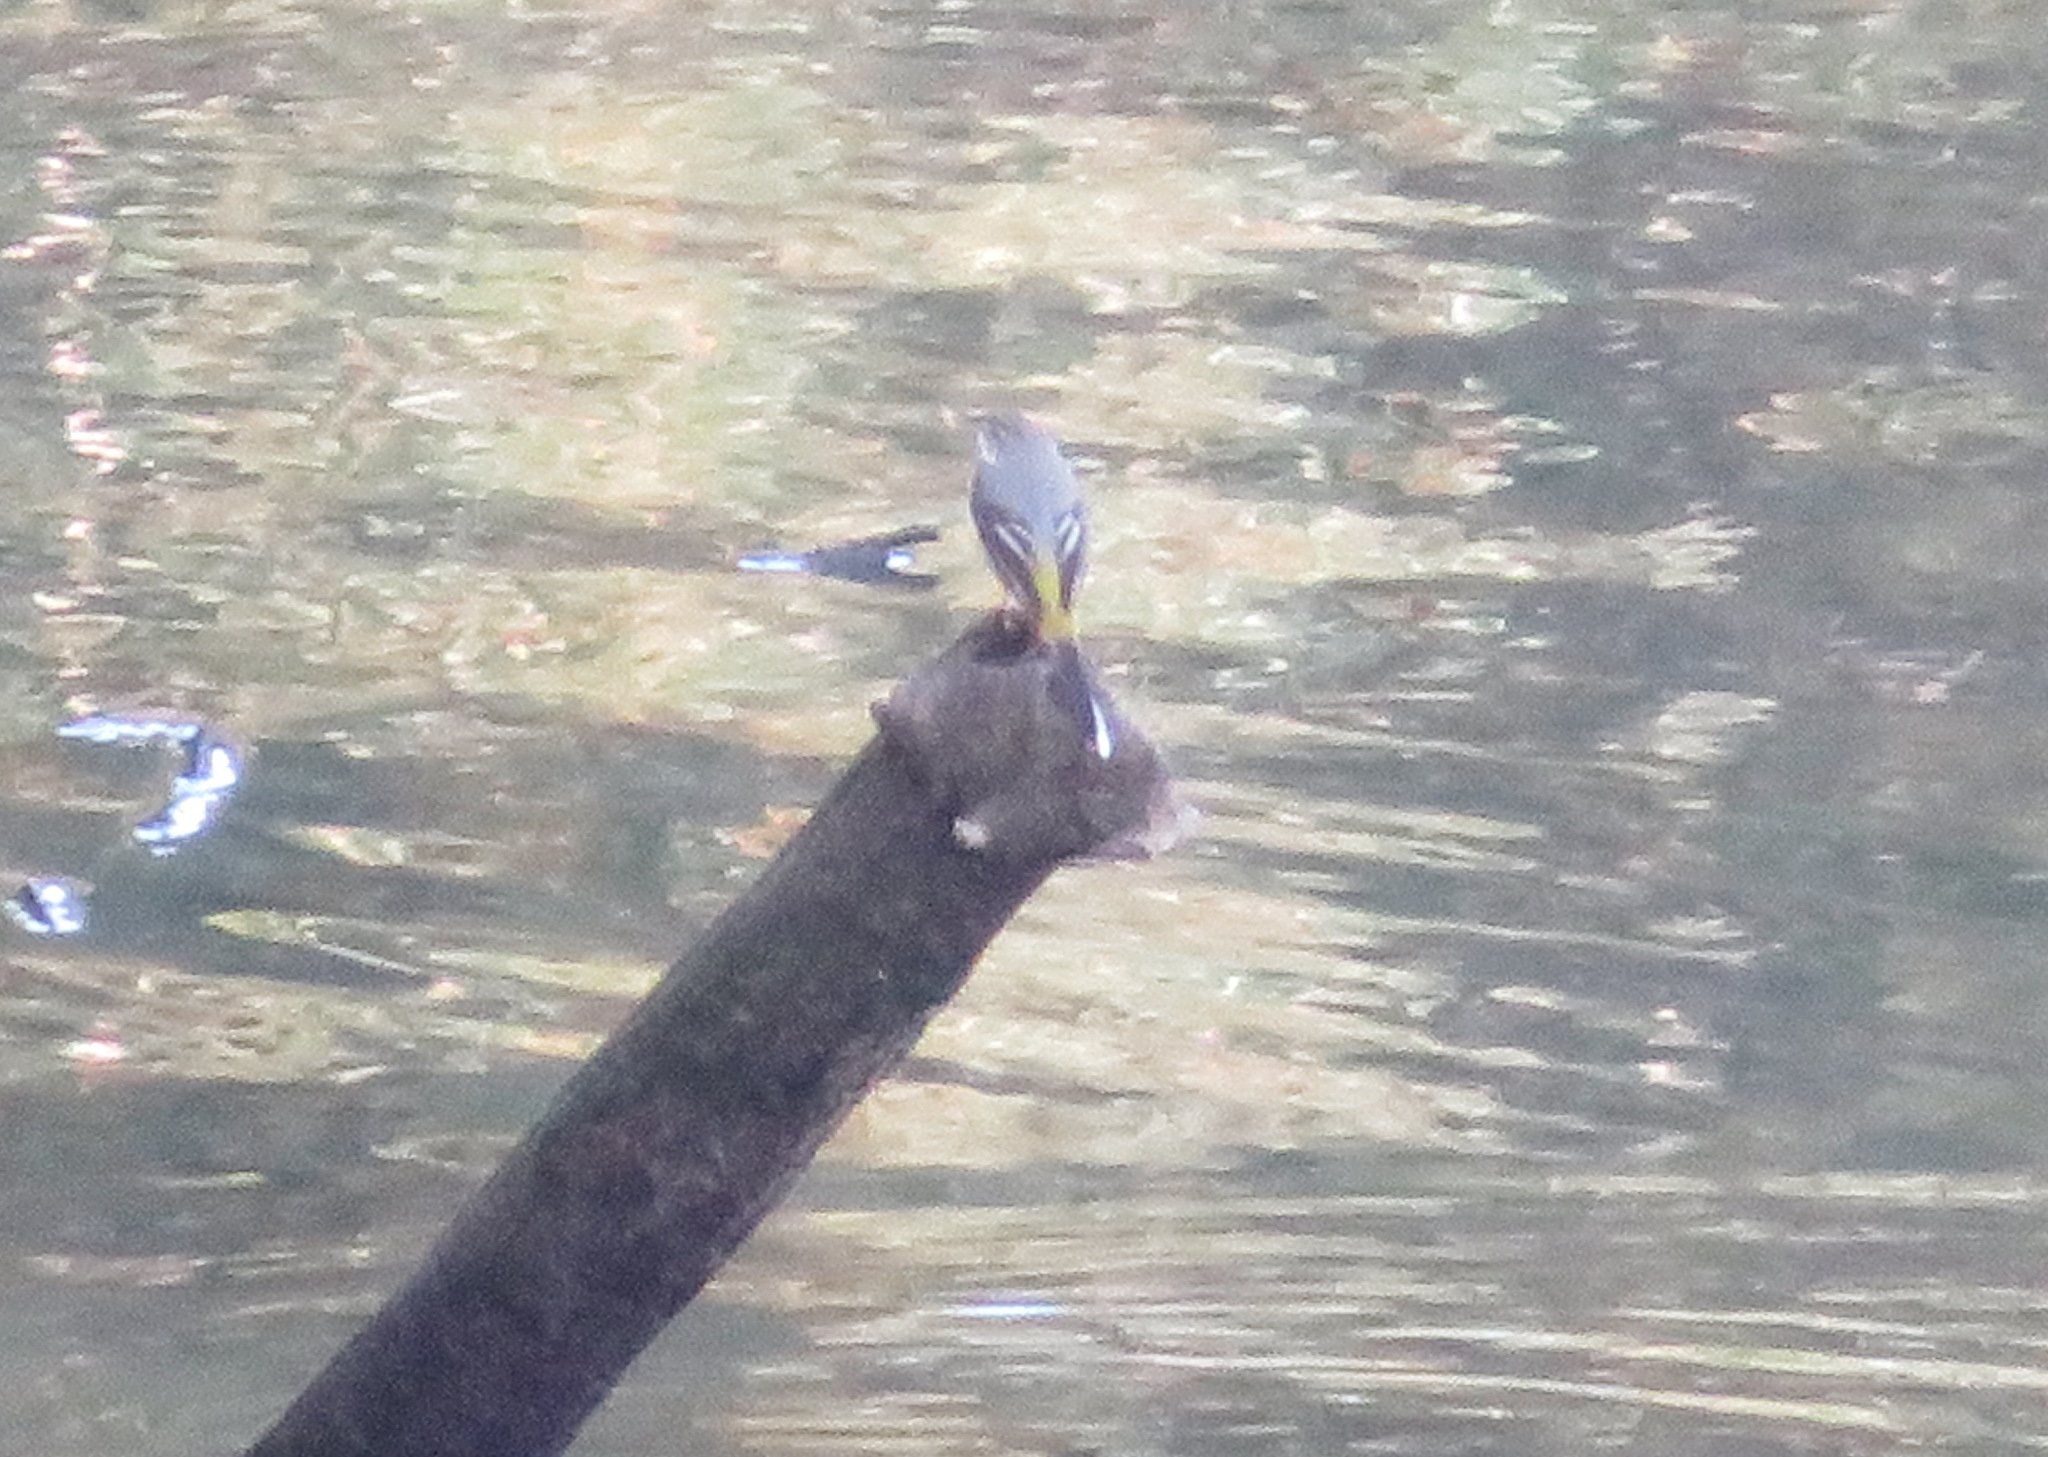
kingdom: Animalia
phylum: Chordata
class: Aves
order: Passeriformes
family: Motacillidae
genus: Motacilla
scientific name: Motacilla cinerea
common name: Grey wagtail
